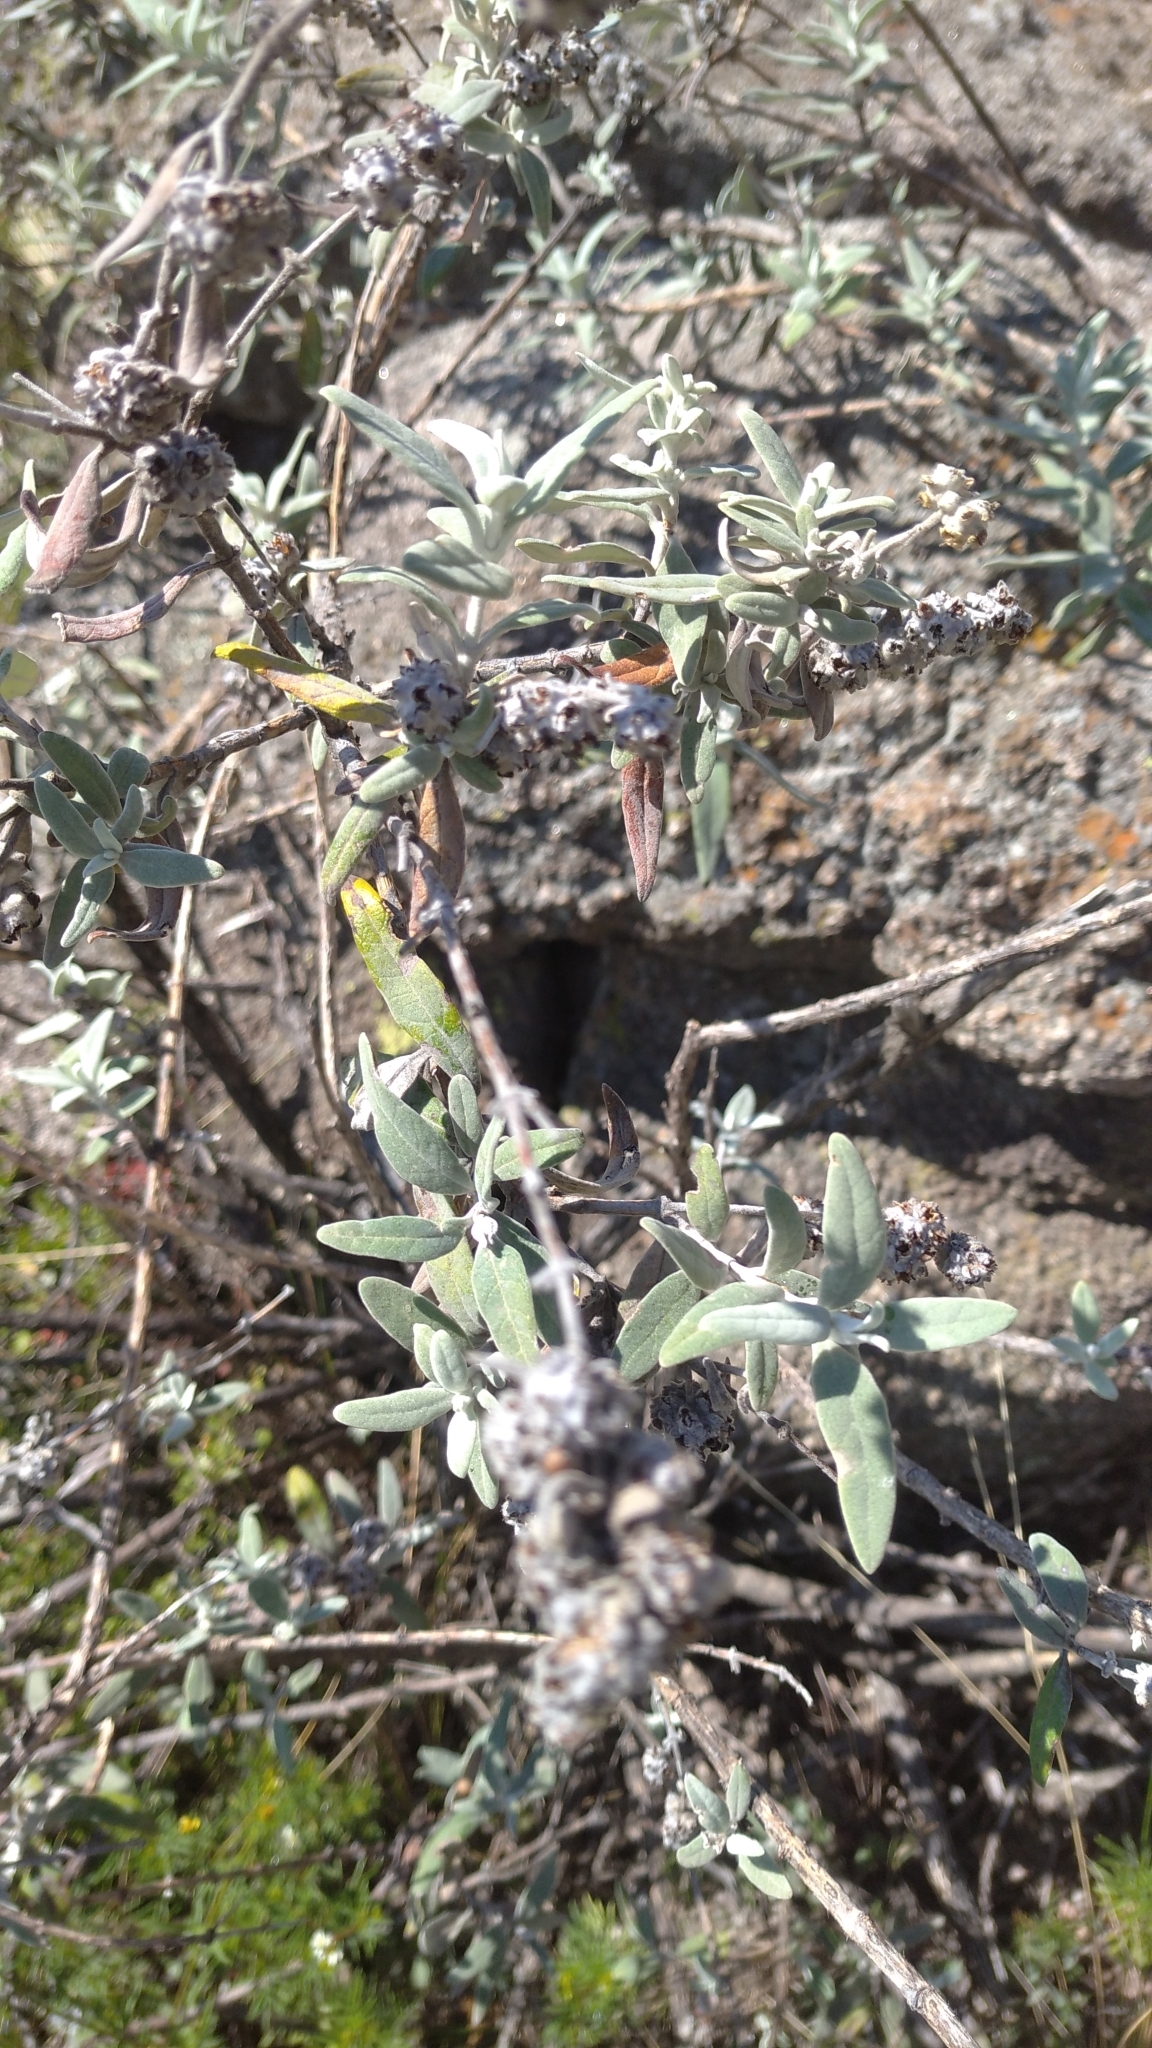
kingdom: Plantae
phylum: Tracheophyta
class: Magnoliopsida
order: Lamiales
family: Scrophulariaceae
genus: Buddleja
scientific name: Buddleja cordobensis
